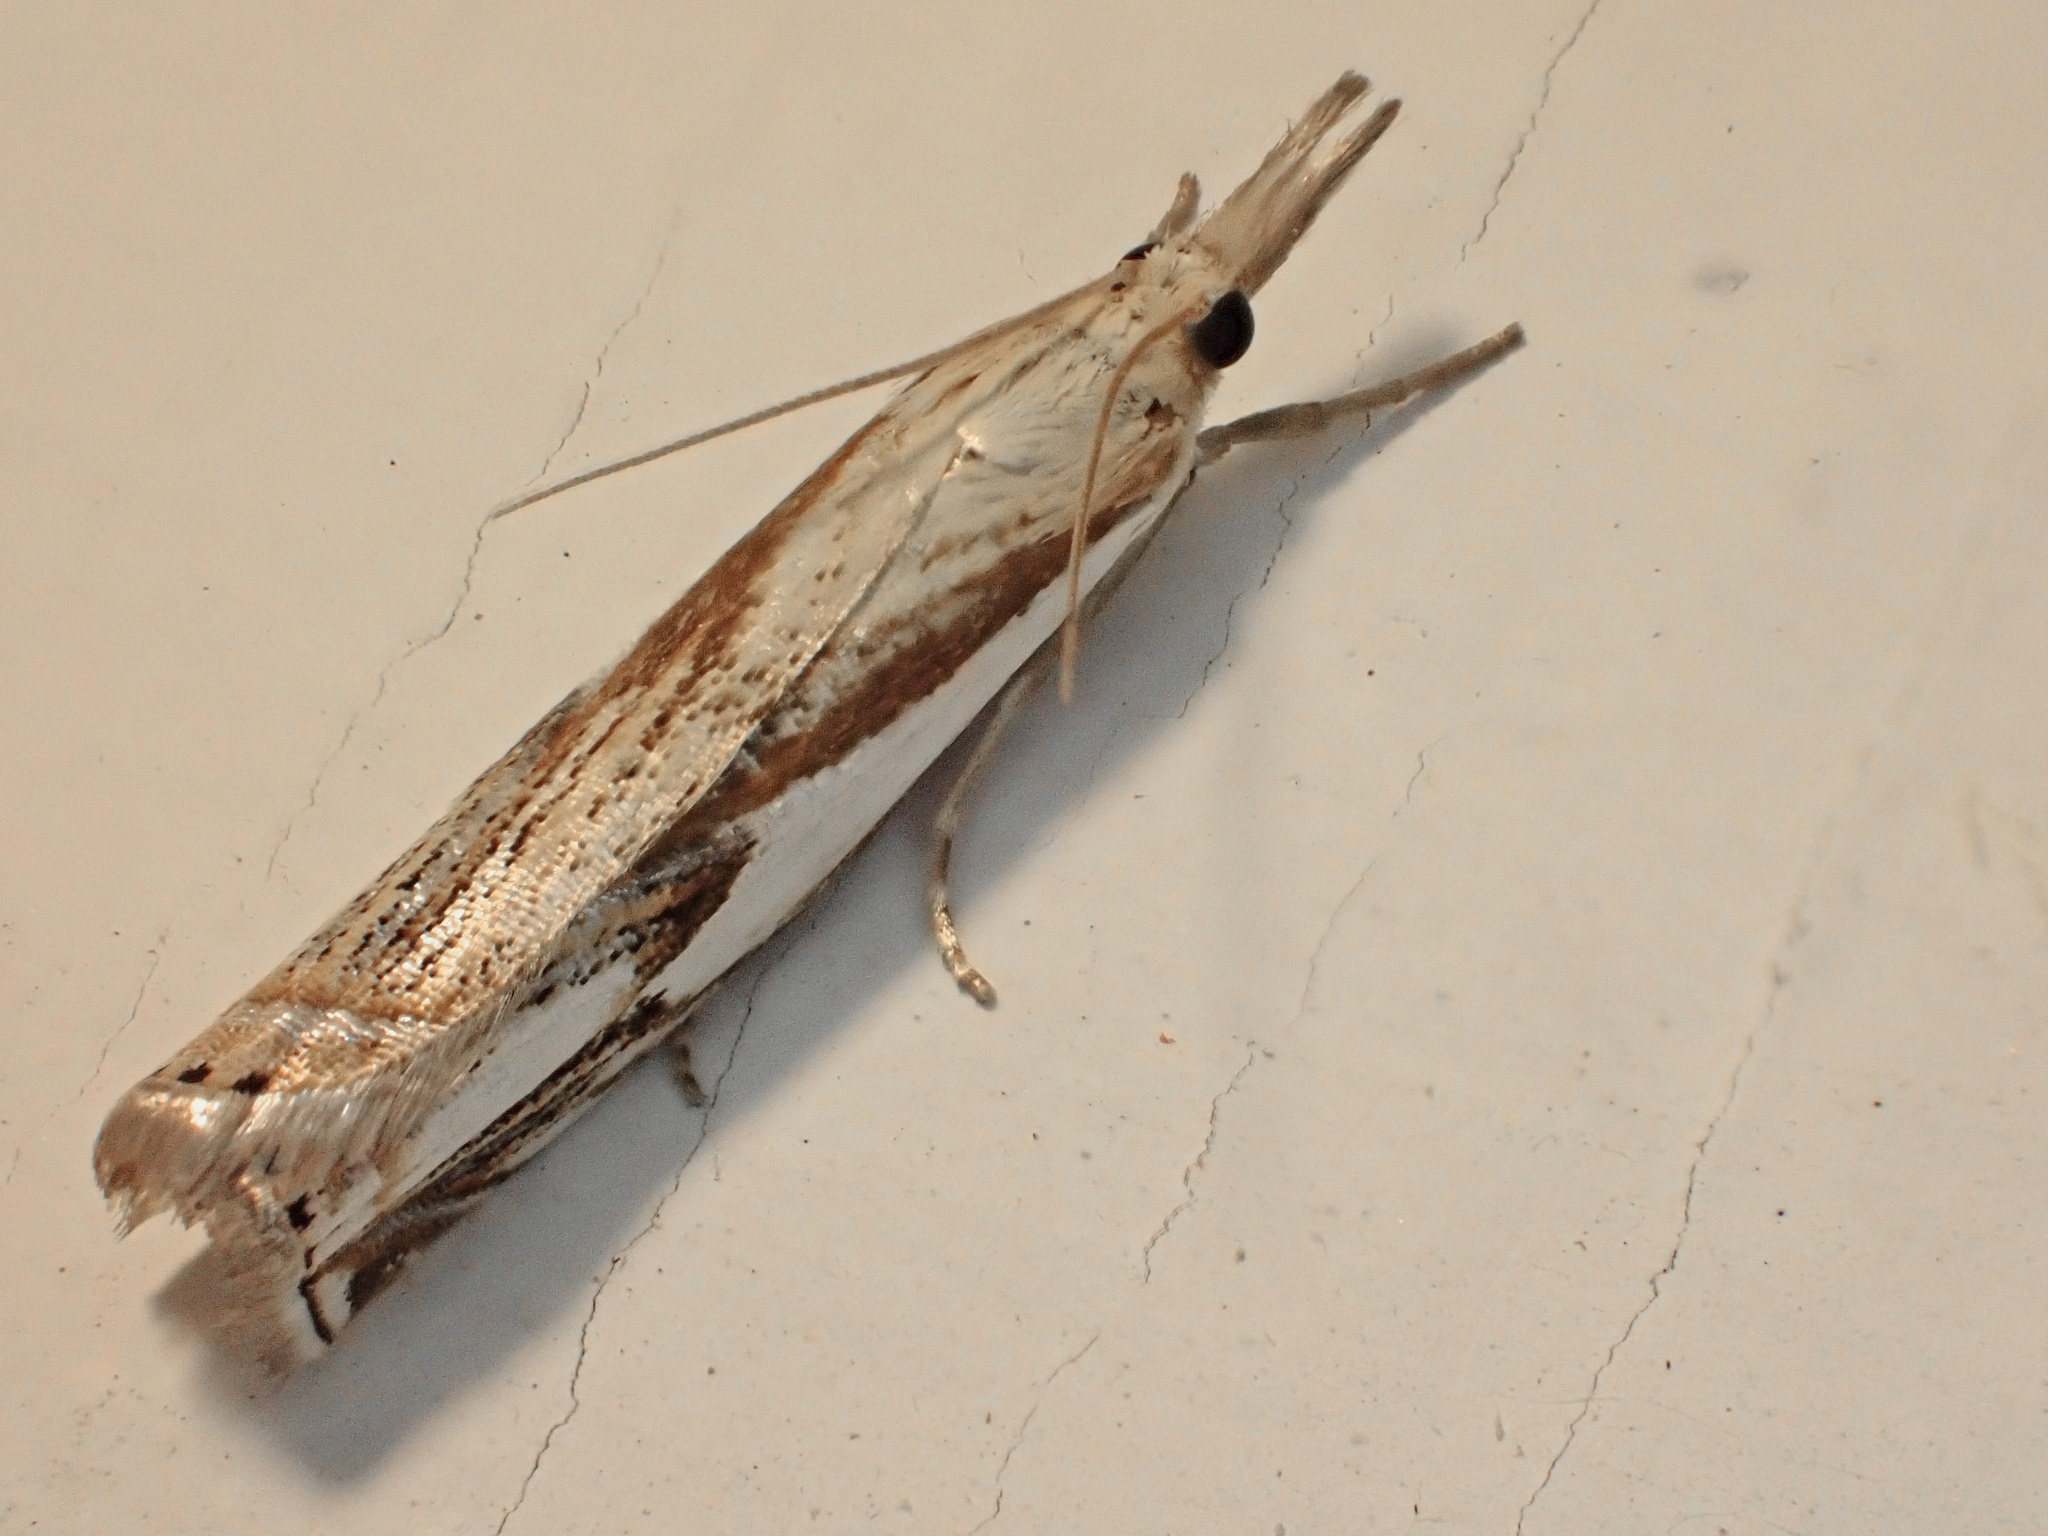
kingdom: Animalia
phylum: Arthropoda
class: Insecta
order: Lepidoptera
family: Crambidae
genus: Crambus
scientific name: Crambus agitatellus
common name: Double-banded grass-veneer
